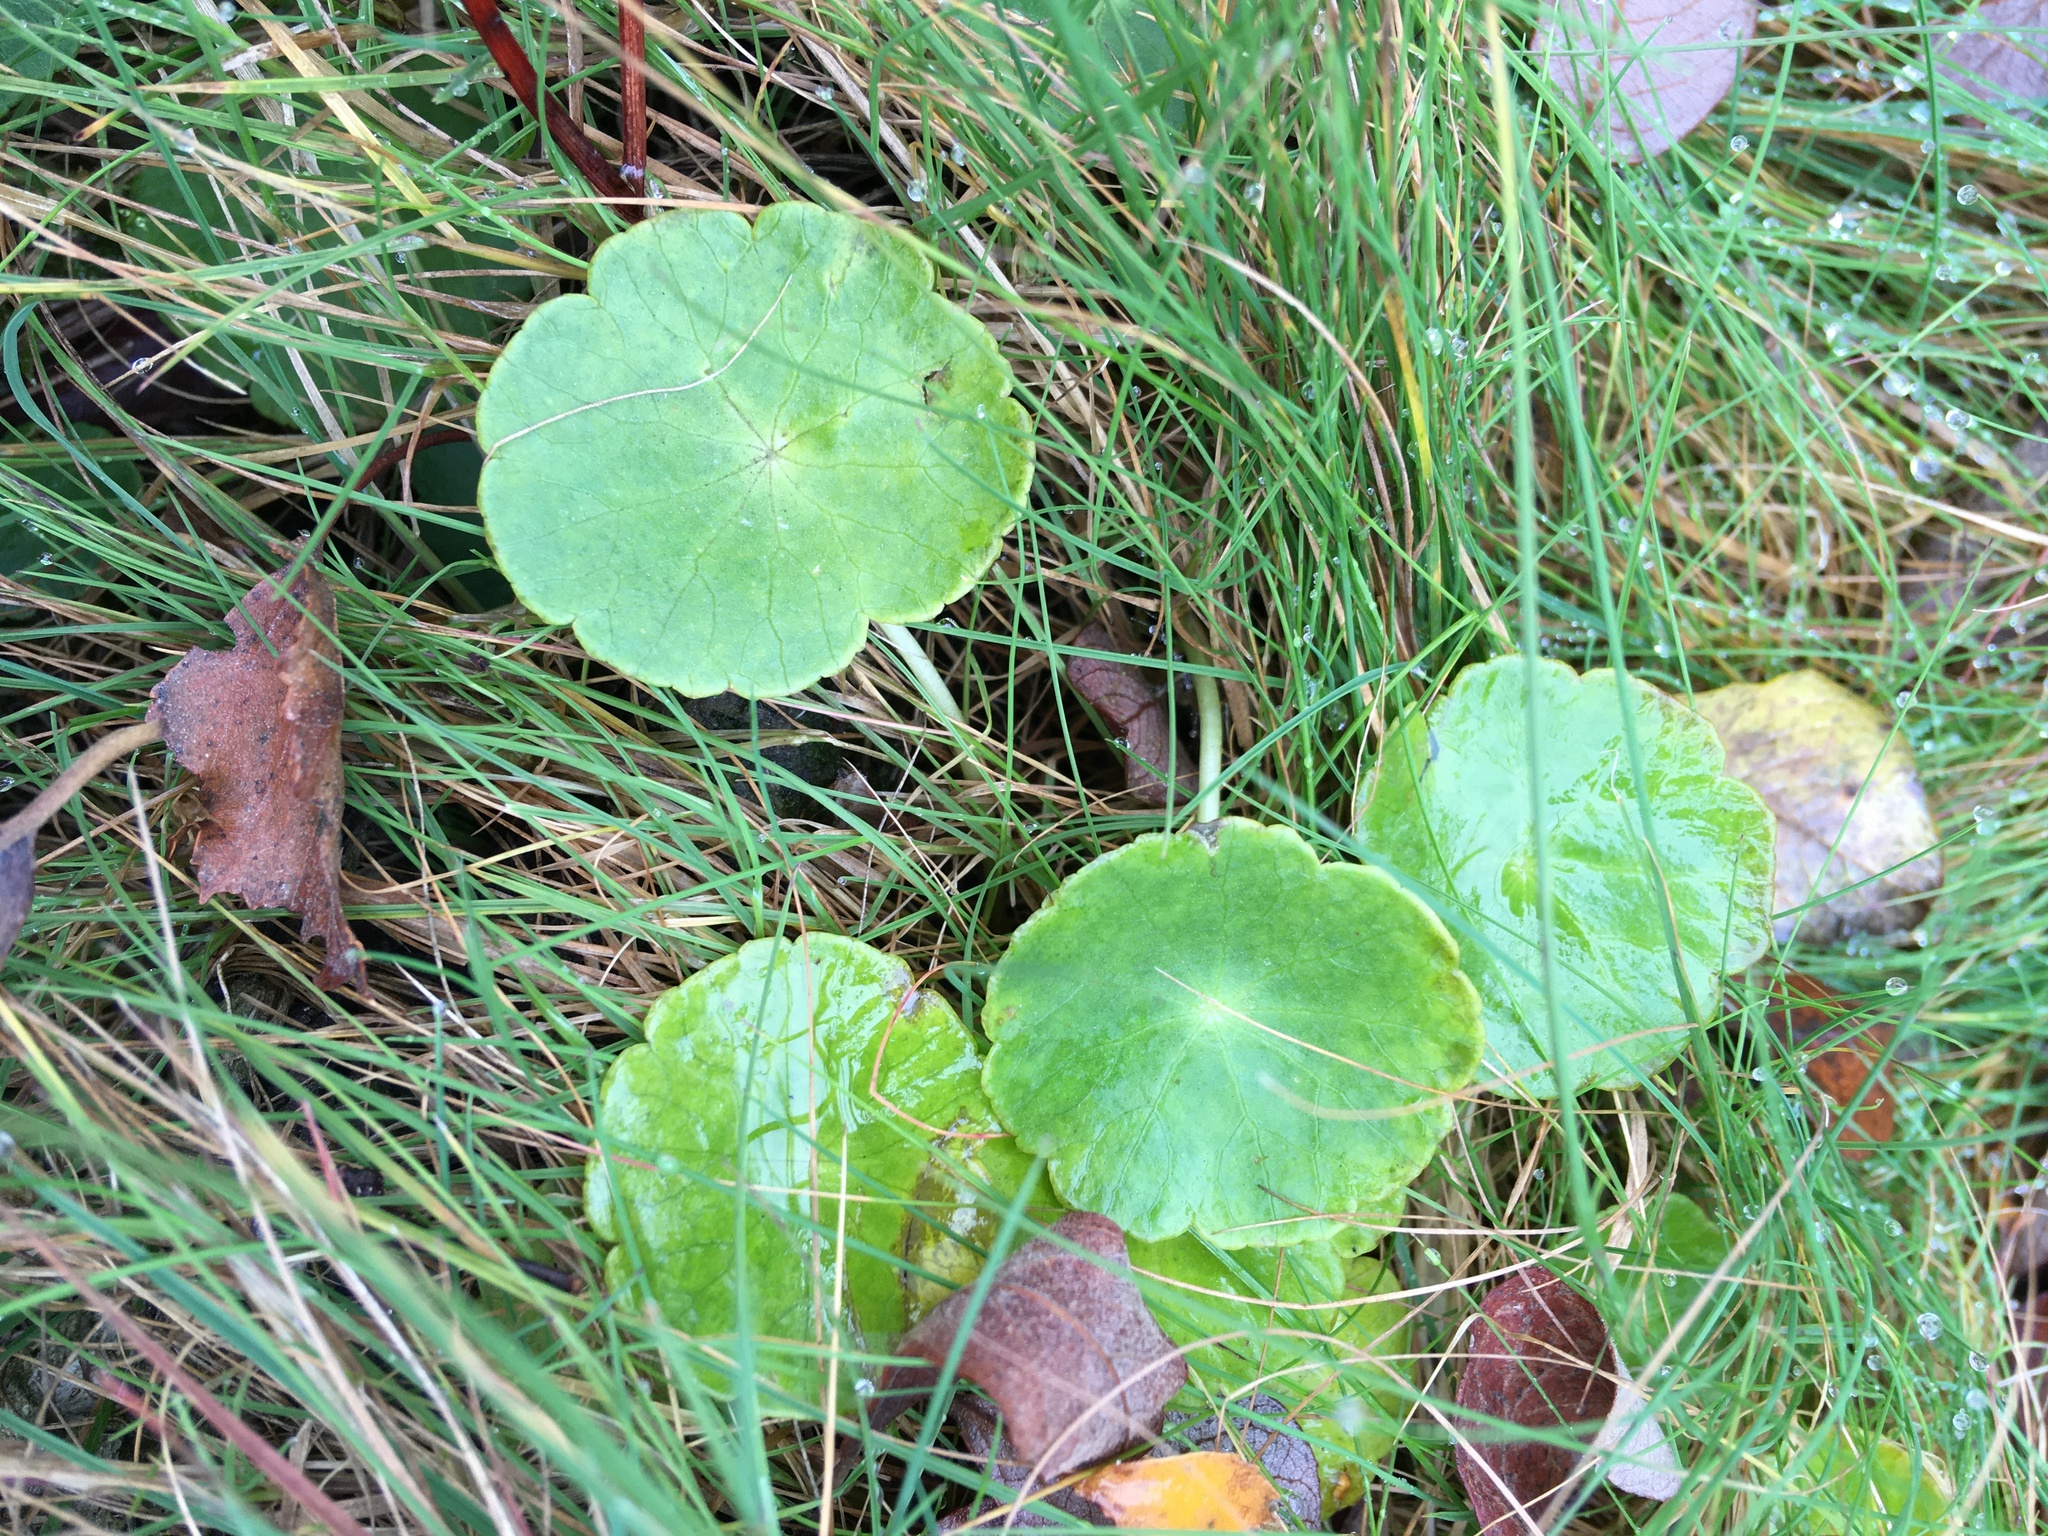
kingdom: Plantae
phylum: Tracheophyta
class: Magnoliopsida
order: Apiales
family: Araliaceae
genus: Hydrocotyle
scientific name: Hydrocotyle vulgaris
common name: Marsh pennywort
